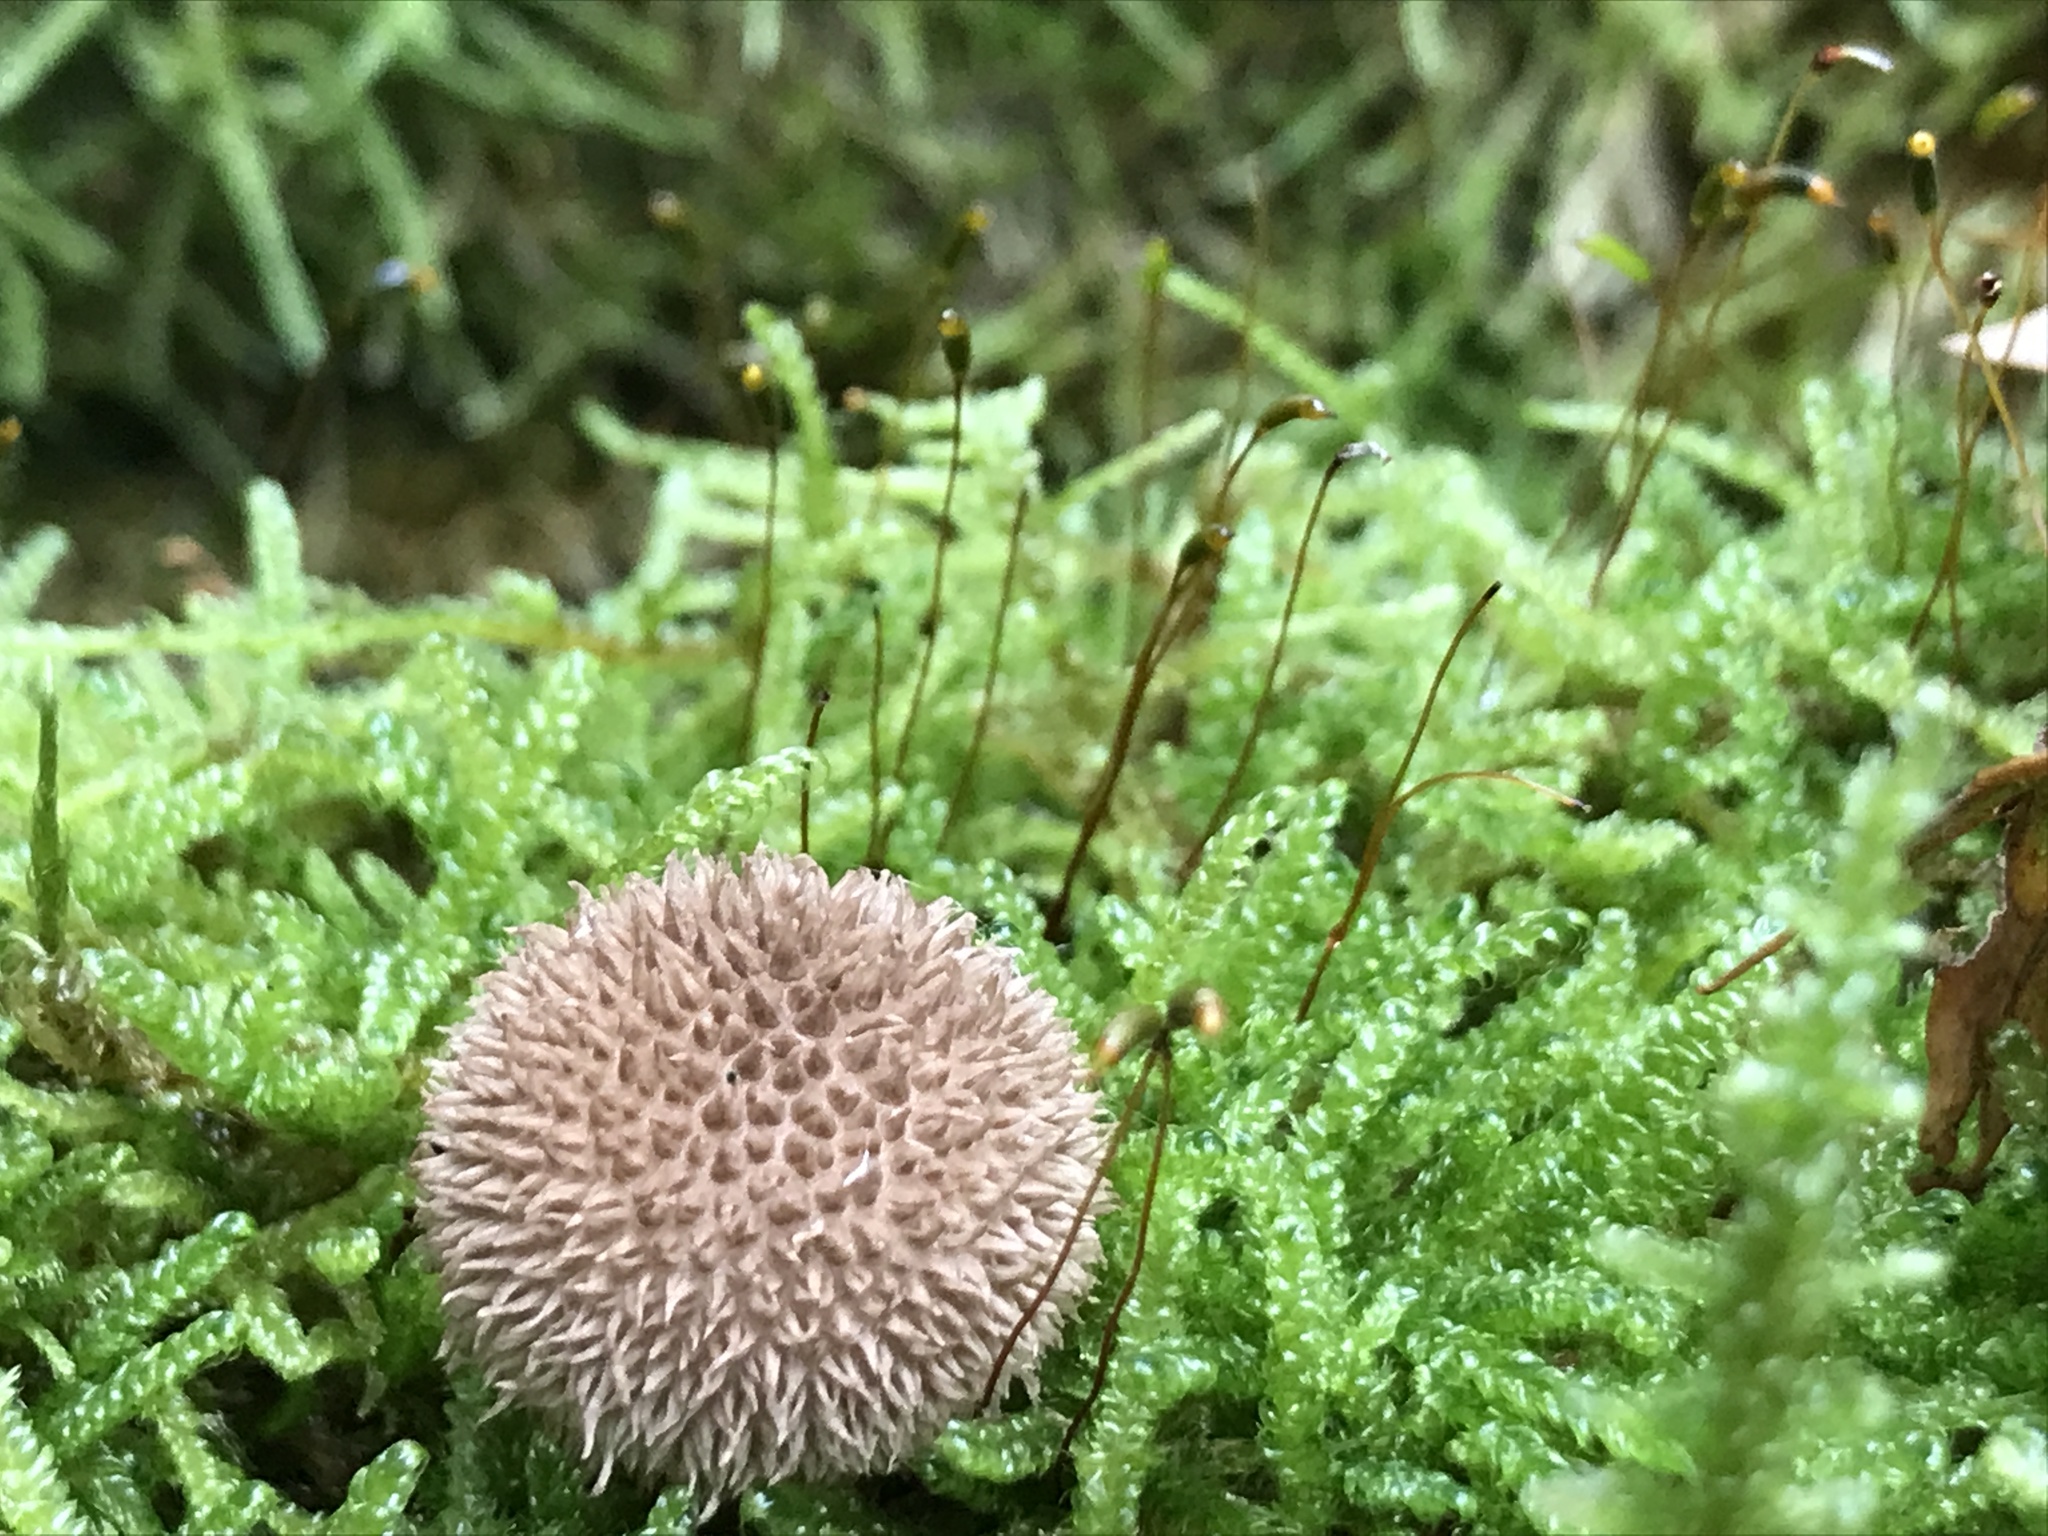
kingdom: Fungi
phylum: Basidiomycota
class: Agaricomycetes
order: Agaricales
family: Lycoperdaceae
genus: Lycoperdon
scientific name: Lycoperdon echinatum
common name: Hedgehog puffball
